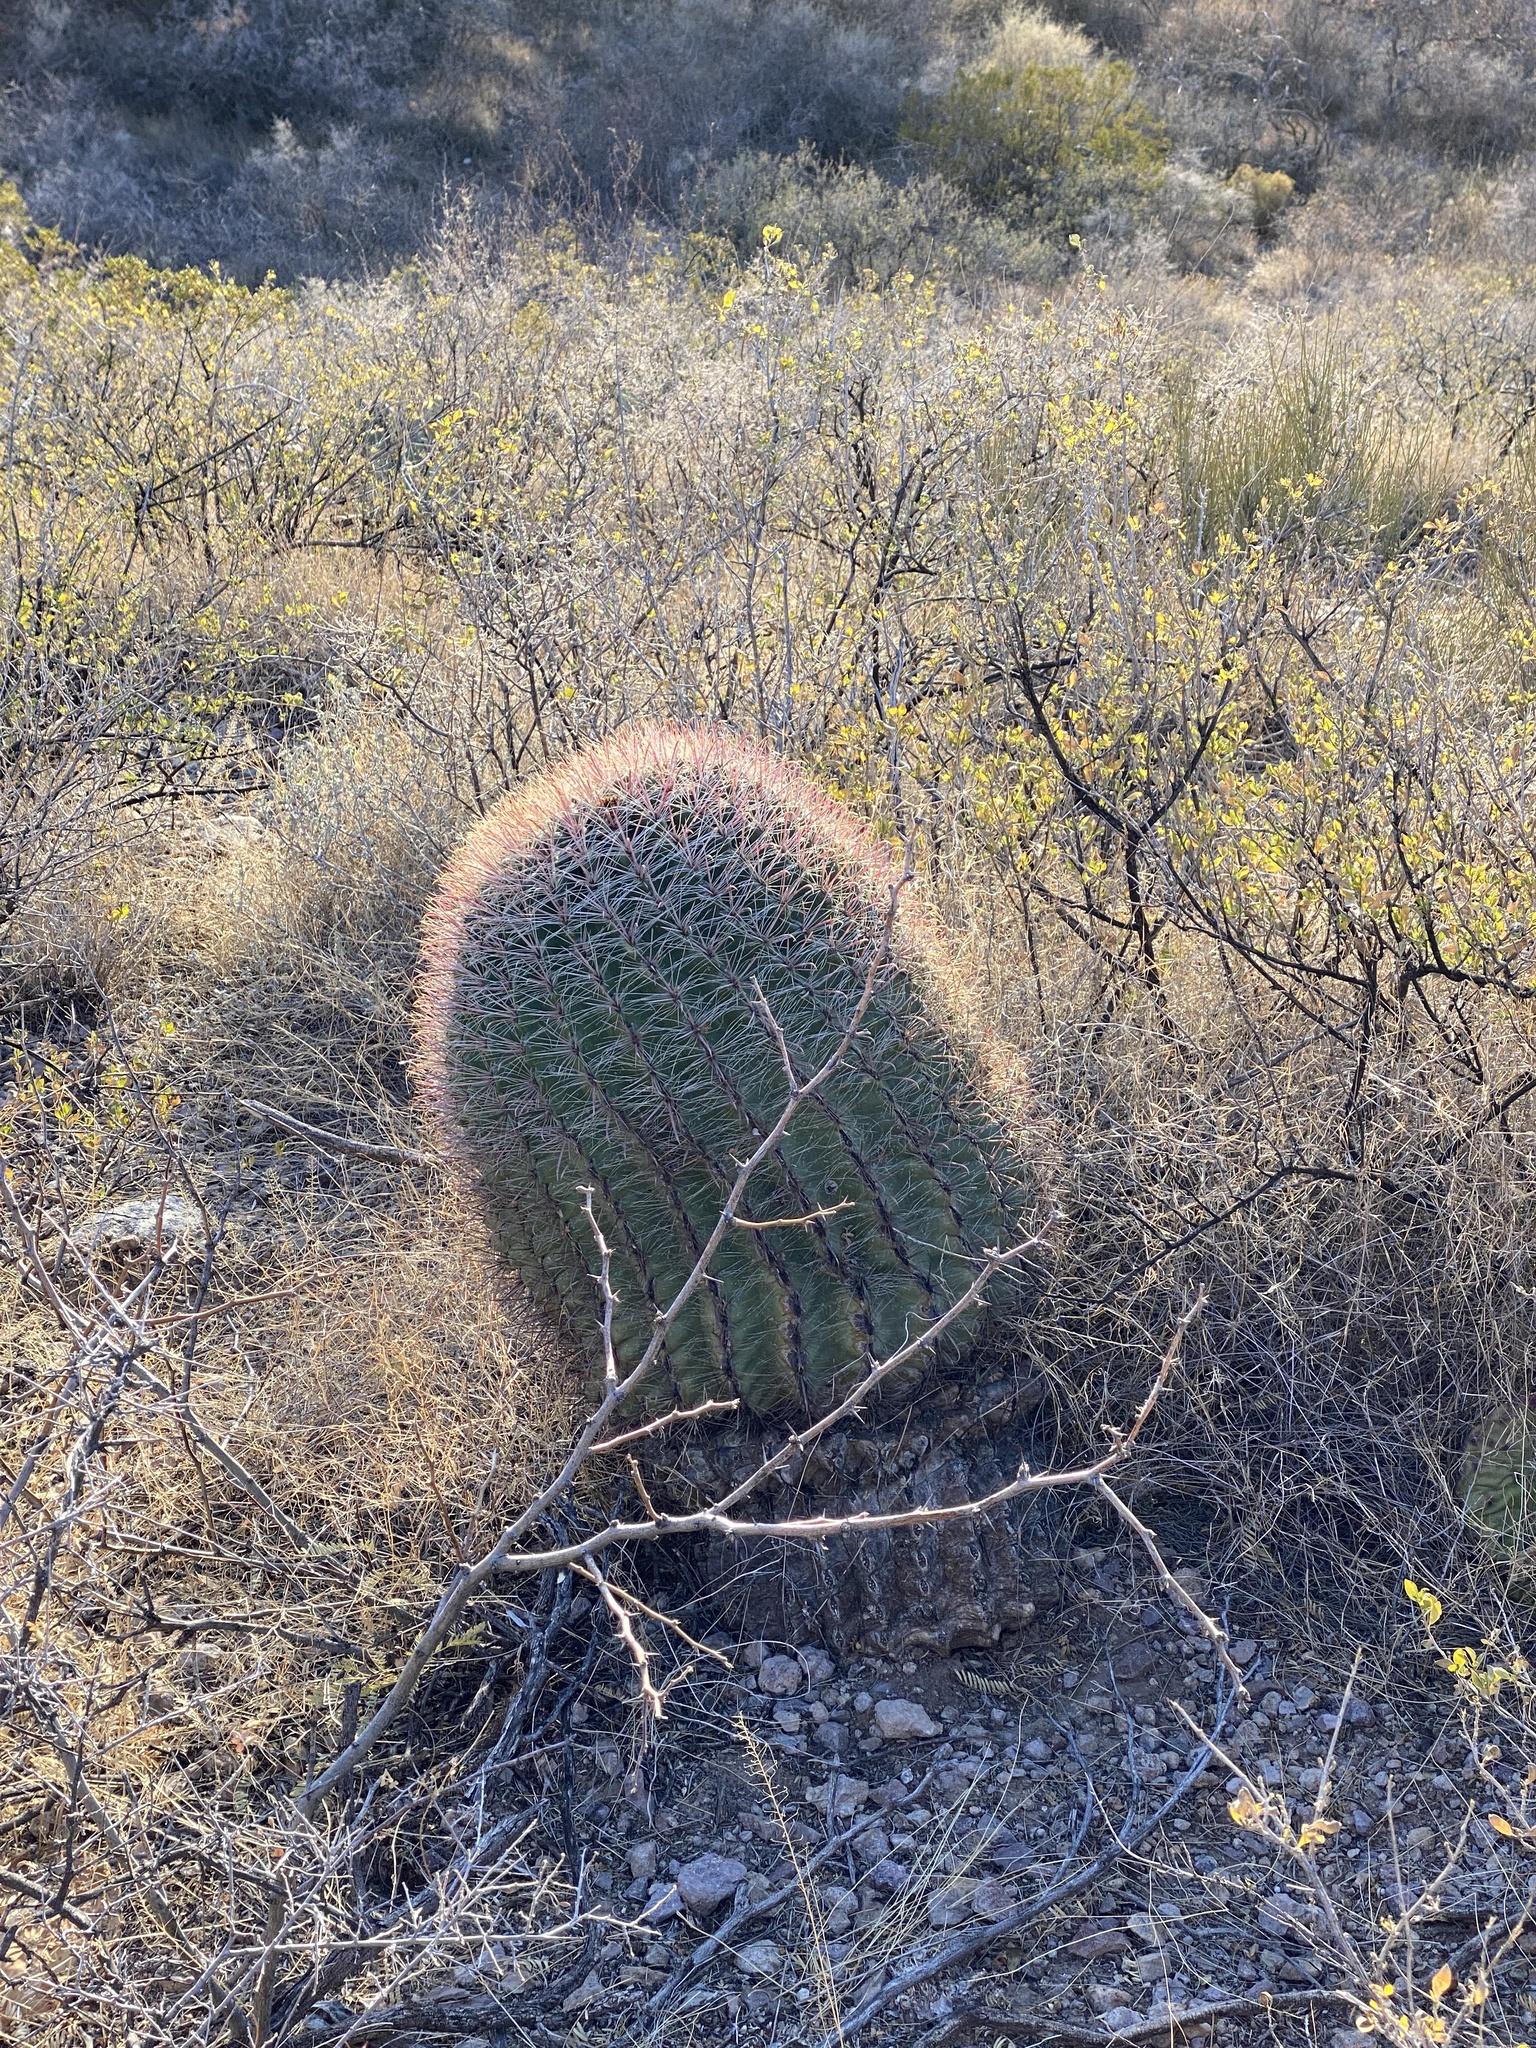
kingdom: Plantae
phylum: Tracheophyta
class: Magnoliopsida
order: Caryophyllales
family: Cactaceae
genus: Ferocactus
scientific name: Ferocactus wislizeni
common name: Candy barrel cactus
